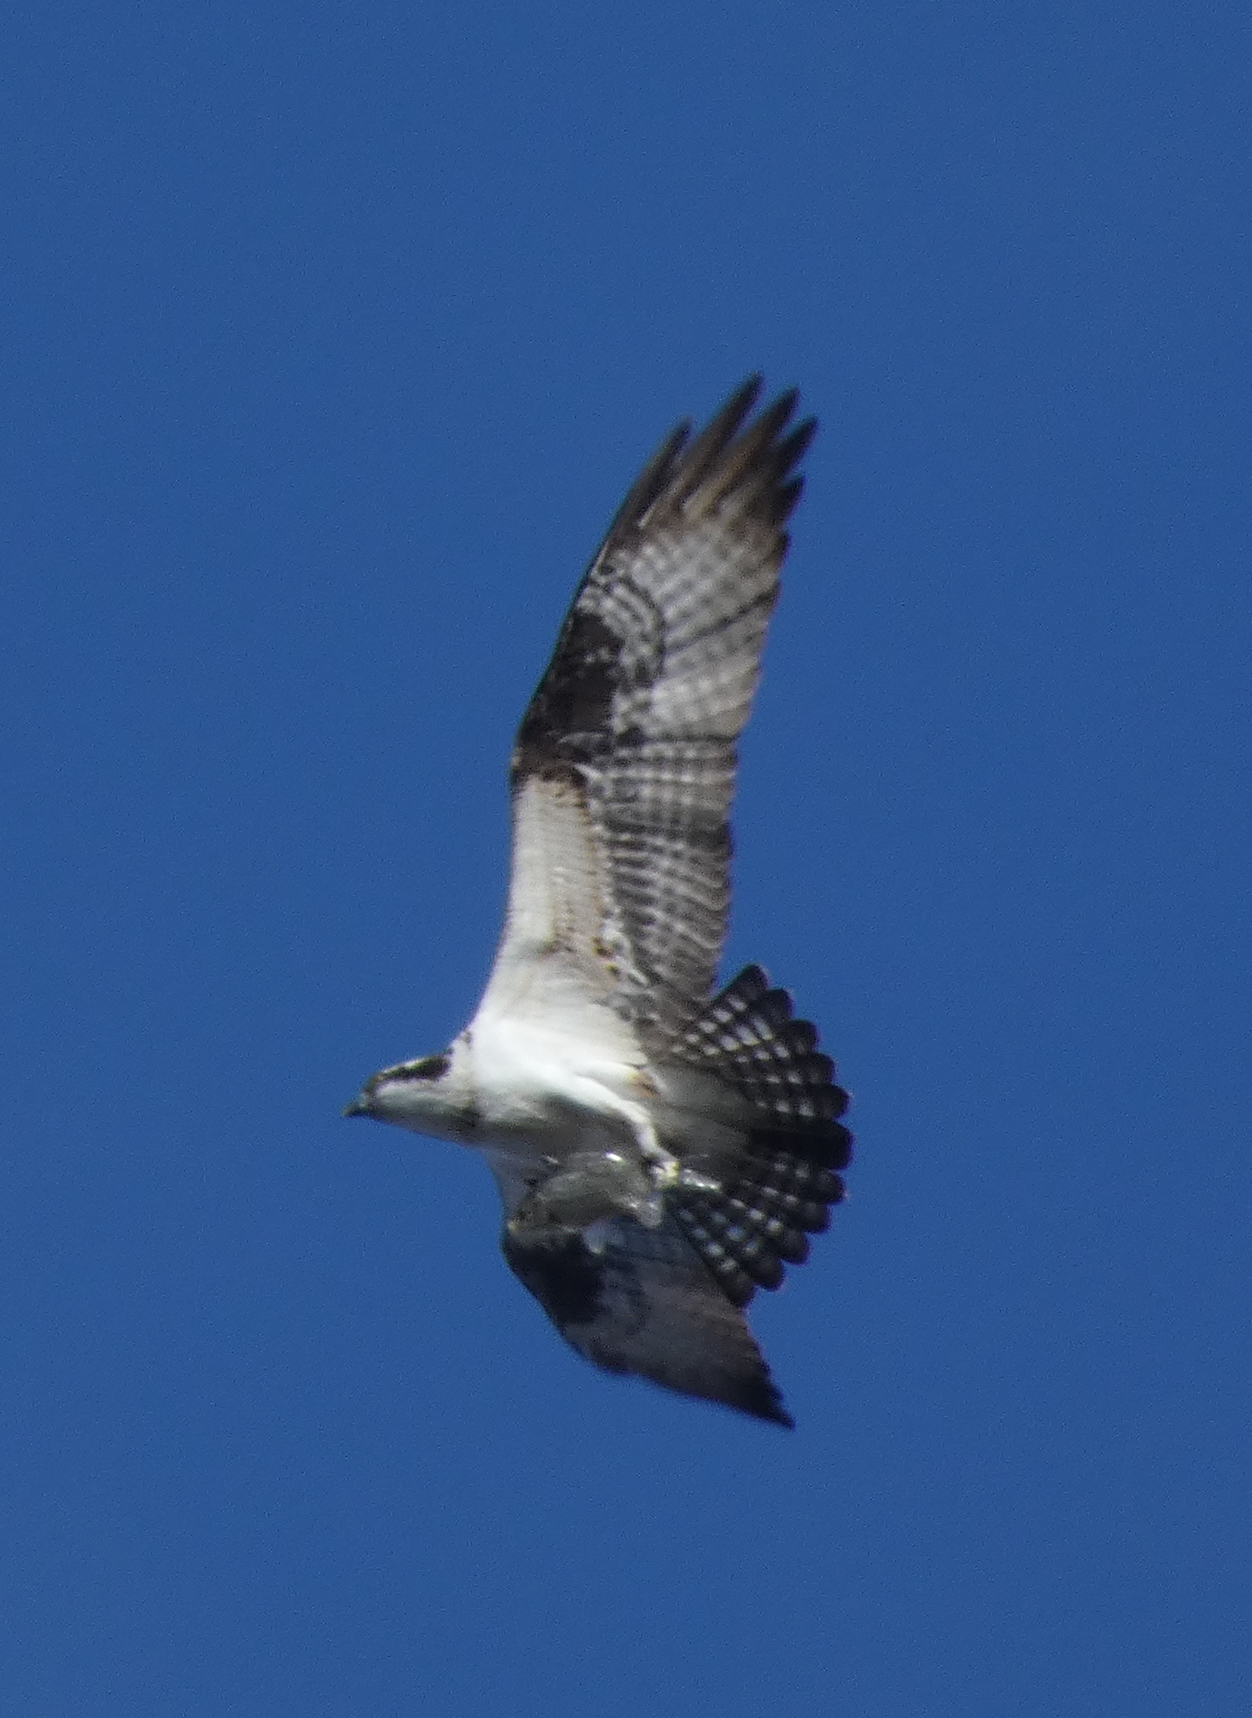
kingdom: Animalia
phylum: Chordata
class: Aves
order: Accipitriformes
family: Pandionidae
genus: Pandion
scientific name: Pandion haliaetus
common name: Osprey
